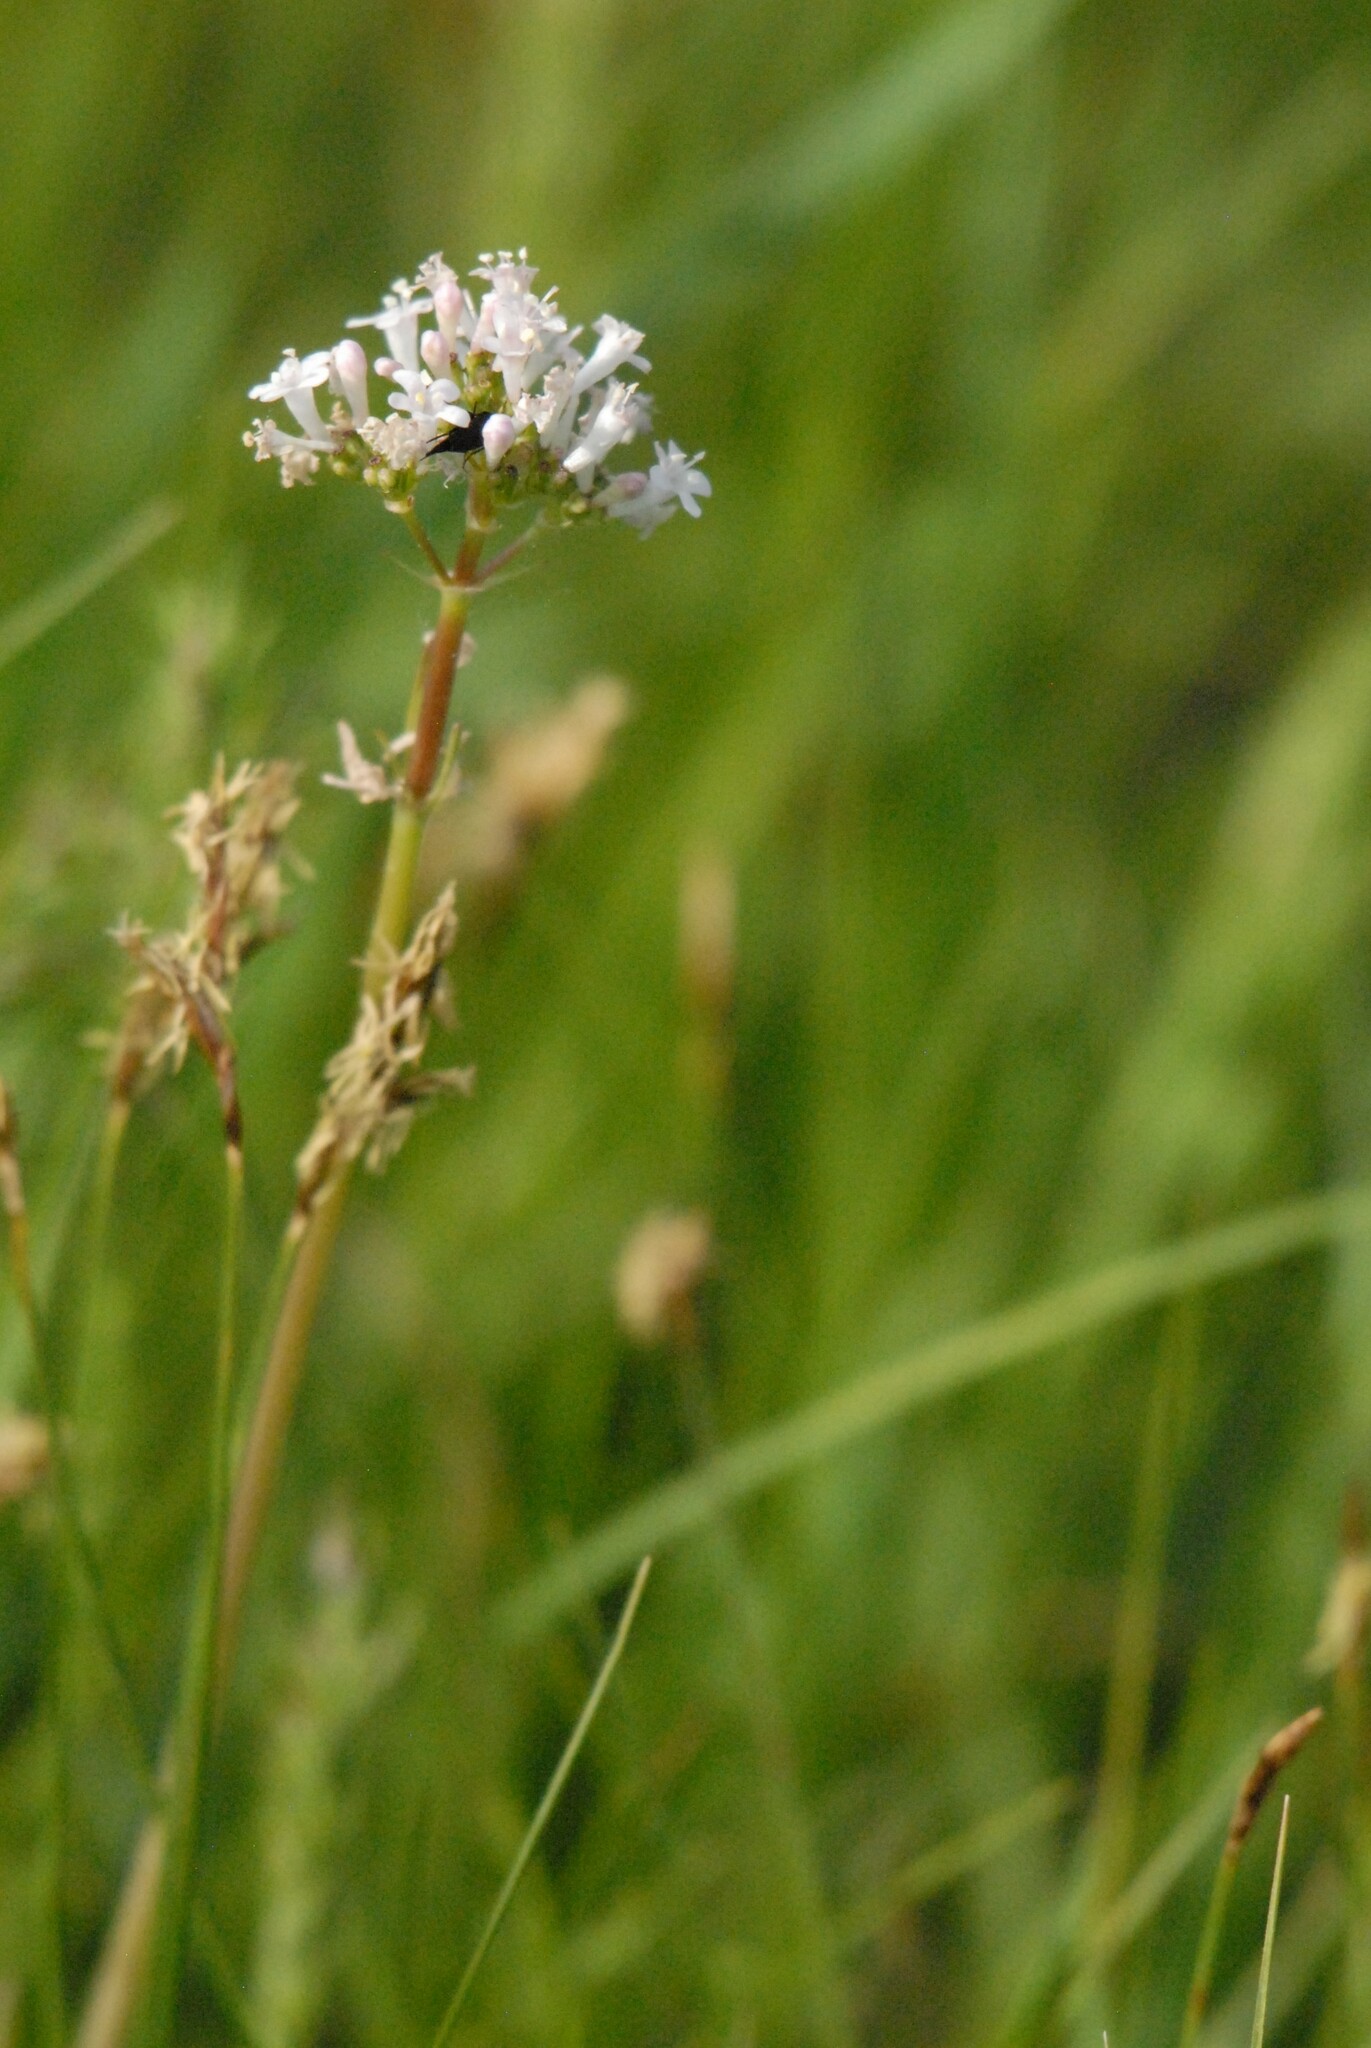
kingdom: Plantae
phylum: Tracheophyta
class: Magnoliopsida
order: Dipsacales
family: Caprifoliaceae
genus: Valeriana
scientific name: Valeriana tuberosa
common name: Tuberous valerian
